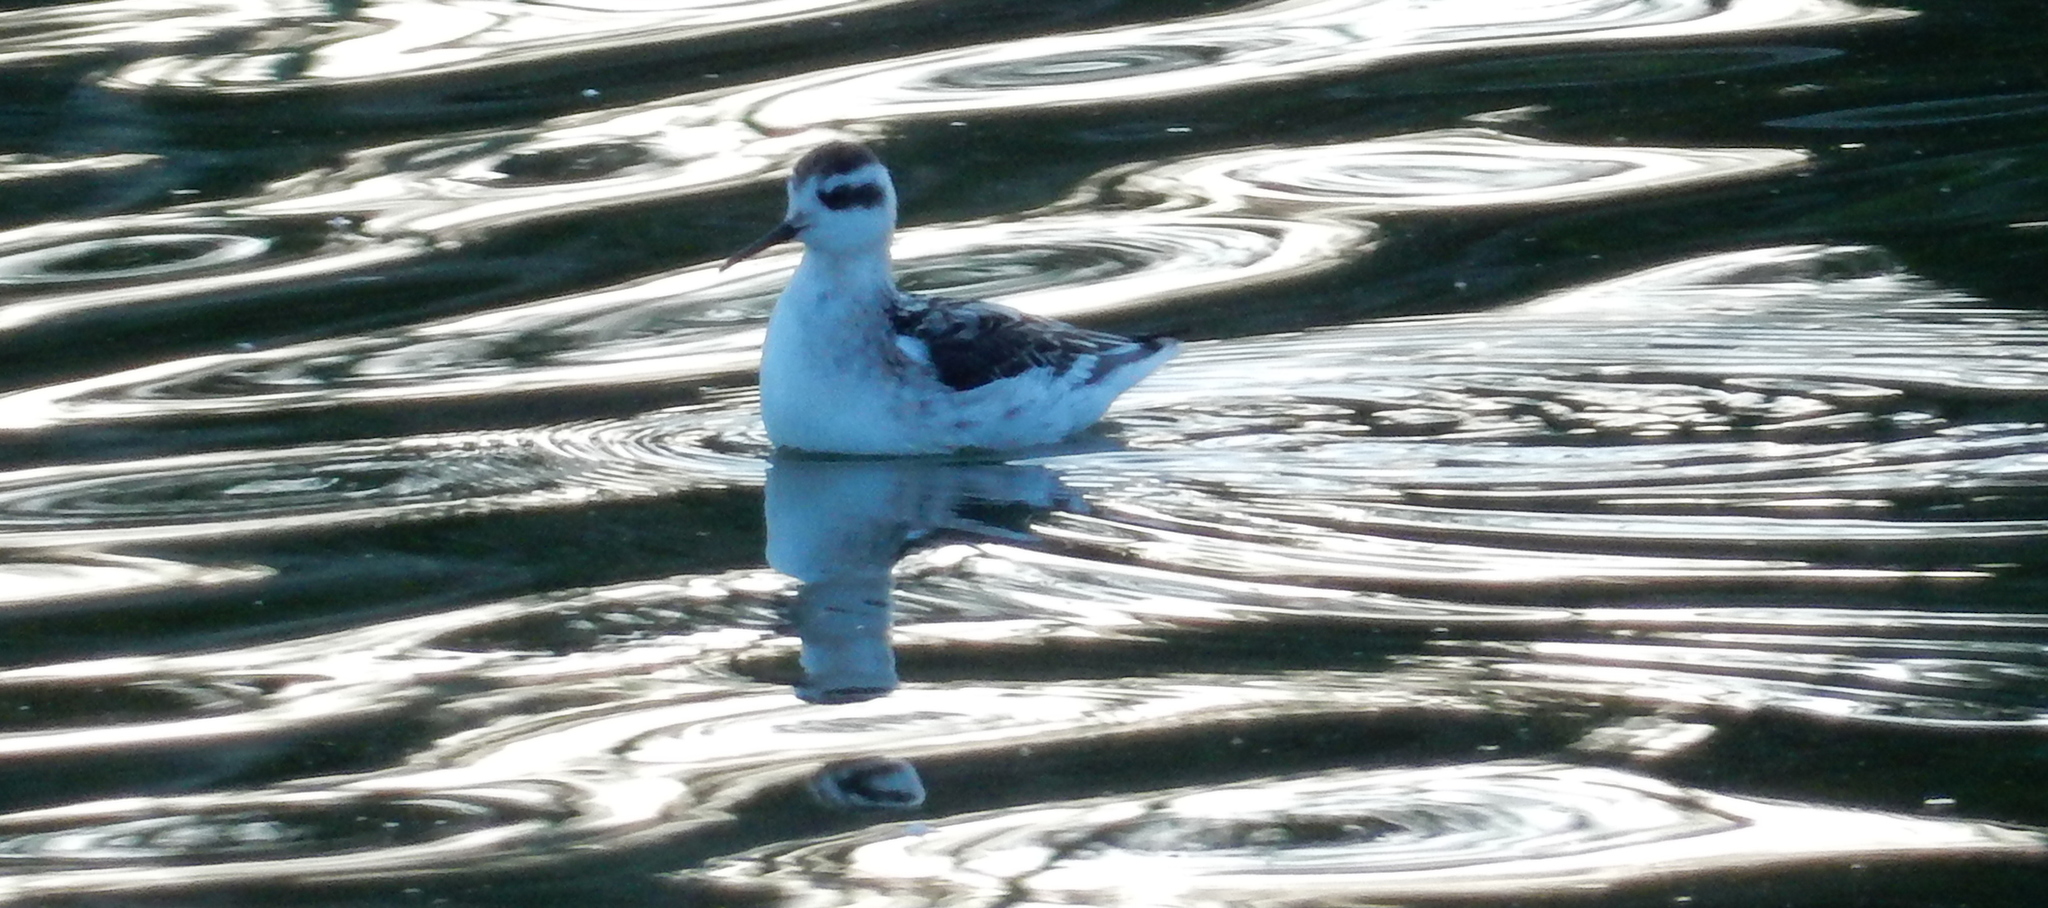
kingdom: Animalia
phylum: Chordata
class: Aves
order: Charadriiformes
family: Scolopacidae
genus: Phalaropus
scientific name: Phalaropus lobatus
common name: Red-necked phalarope
